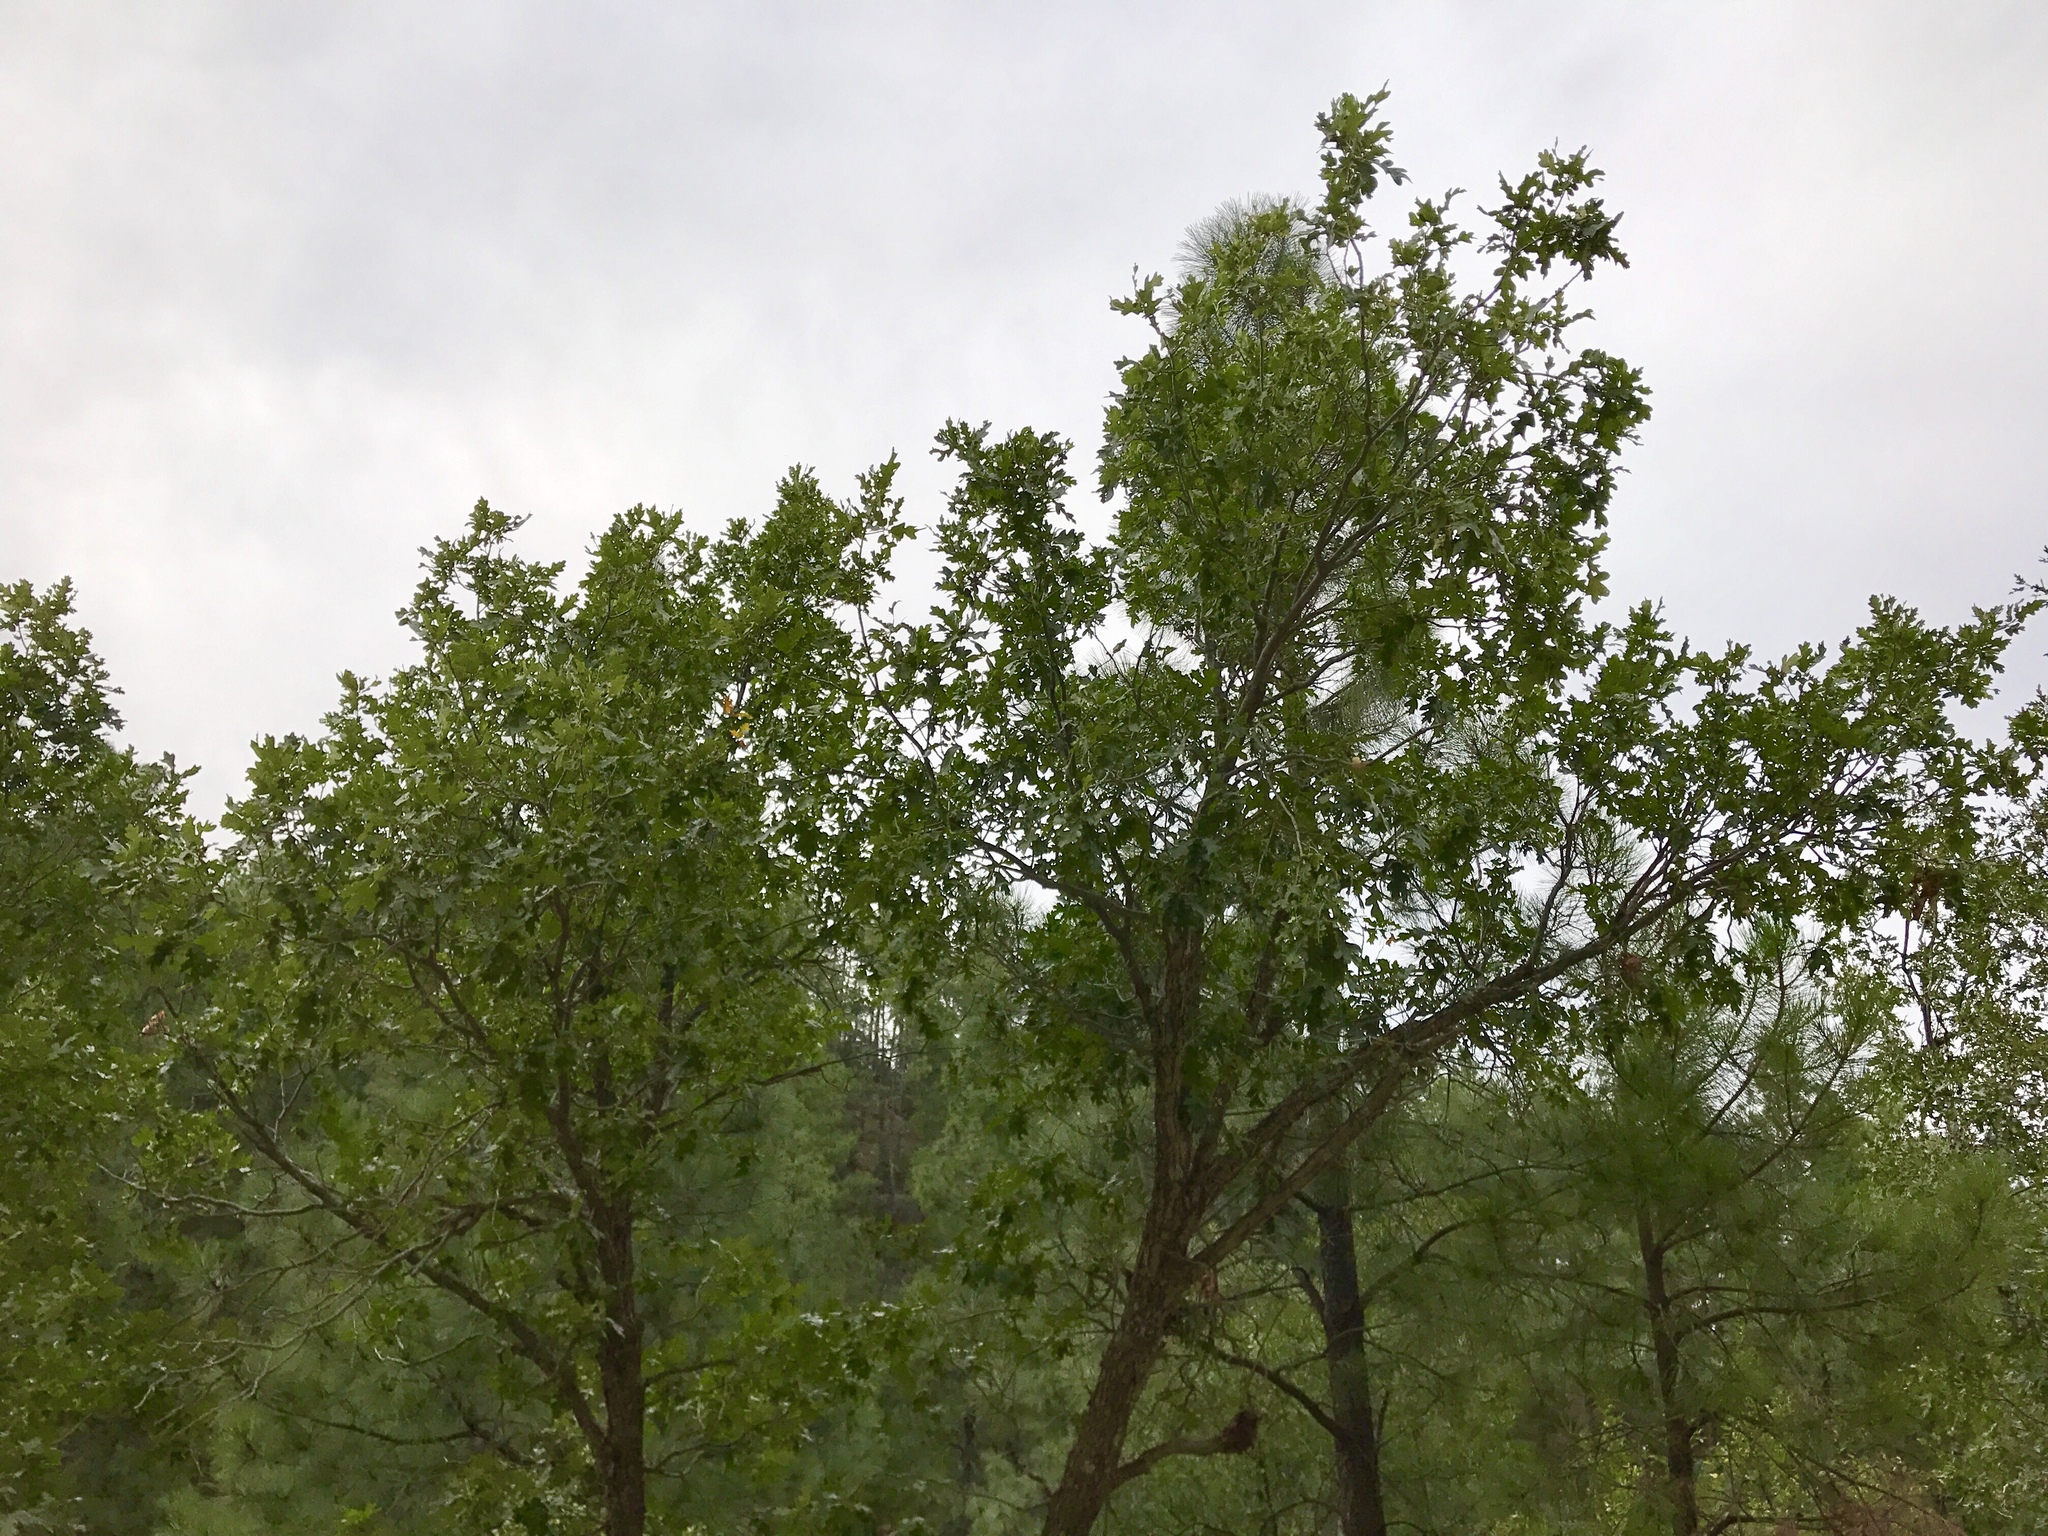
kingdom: Plantae
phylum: Tracheophyta
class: Magnoliopsida
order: Fagales
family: Fagaceae
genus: Quercus
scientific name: Quercus gambelii
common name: Gambel oak
